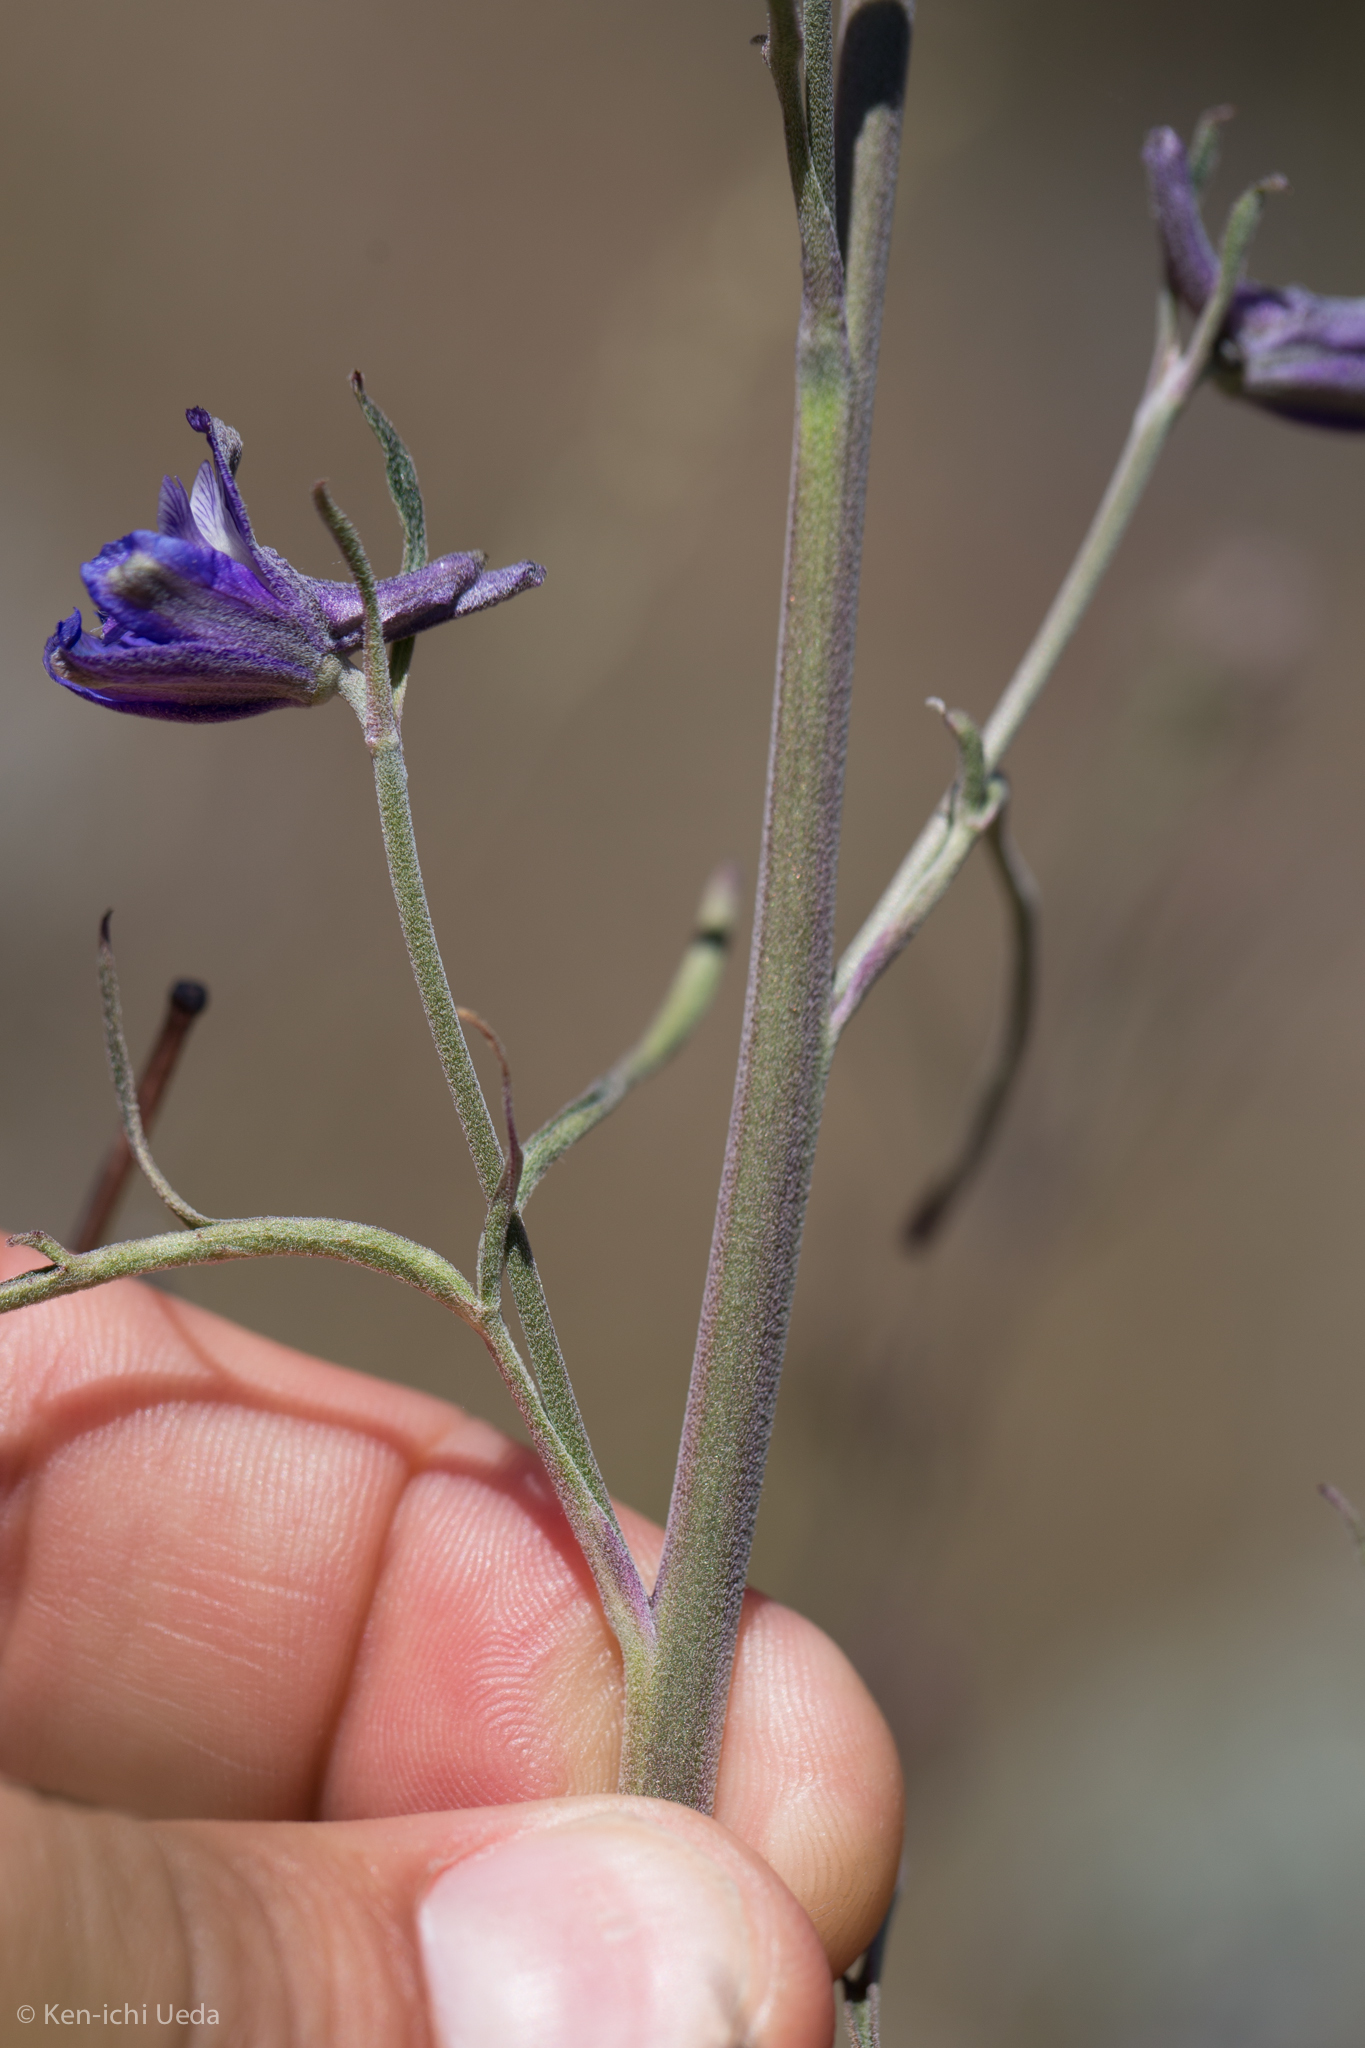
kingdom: Plantae
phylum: Tracheophyta
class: Magnoliopsida
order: Ranunculales
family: Ranunculaceae
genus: Delphinium
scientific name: Delphinium parryi
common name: Parry's larkspur
